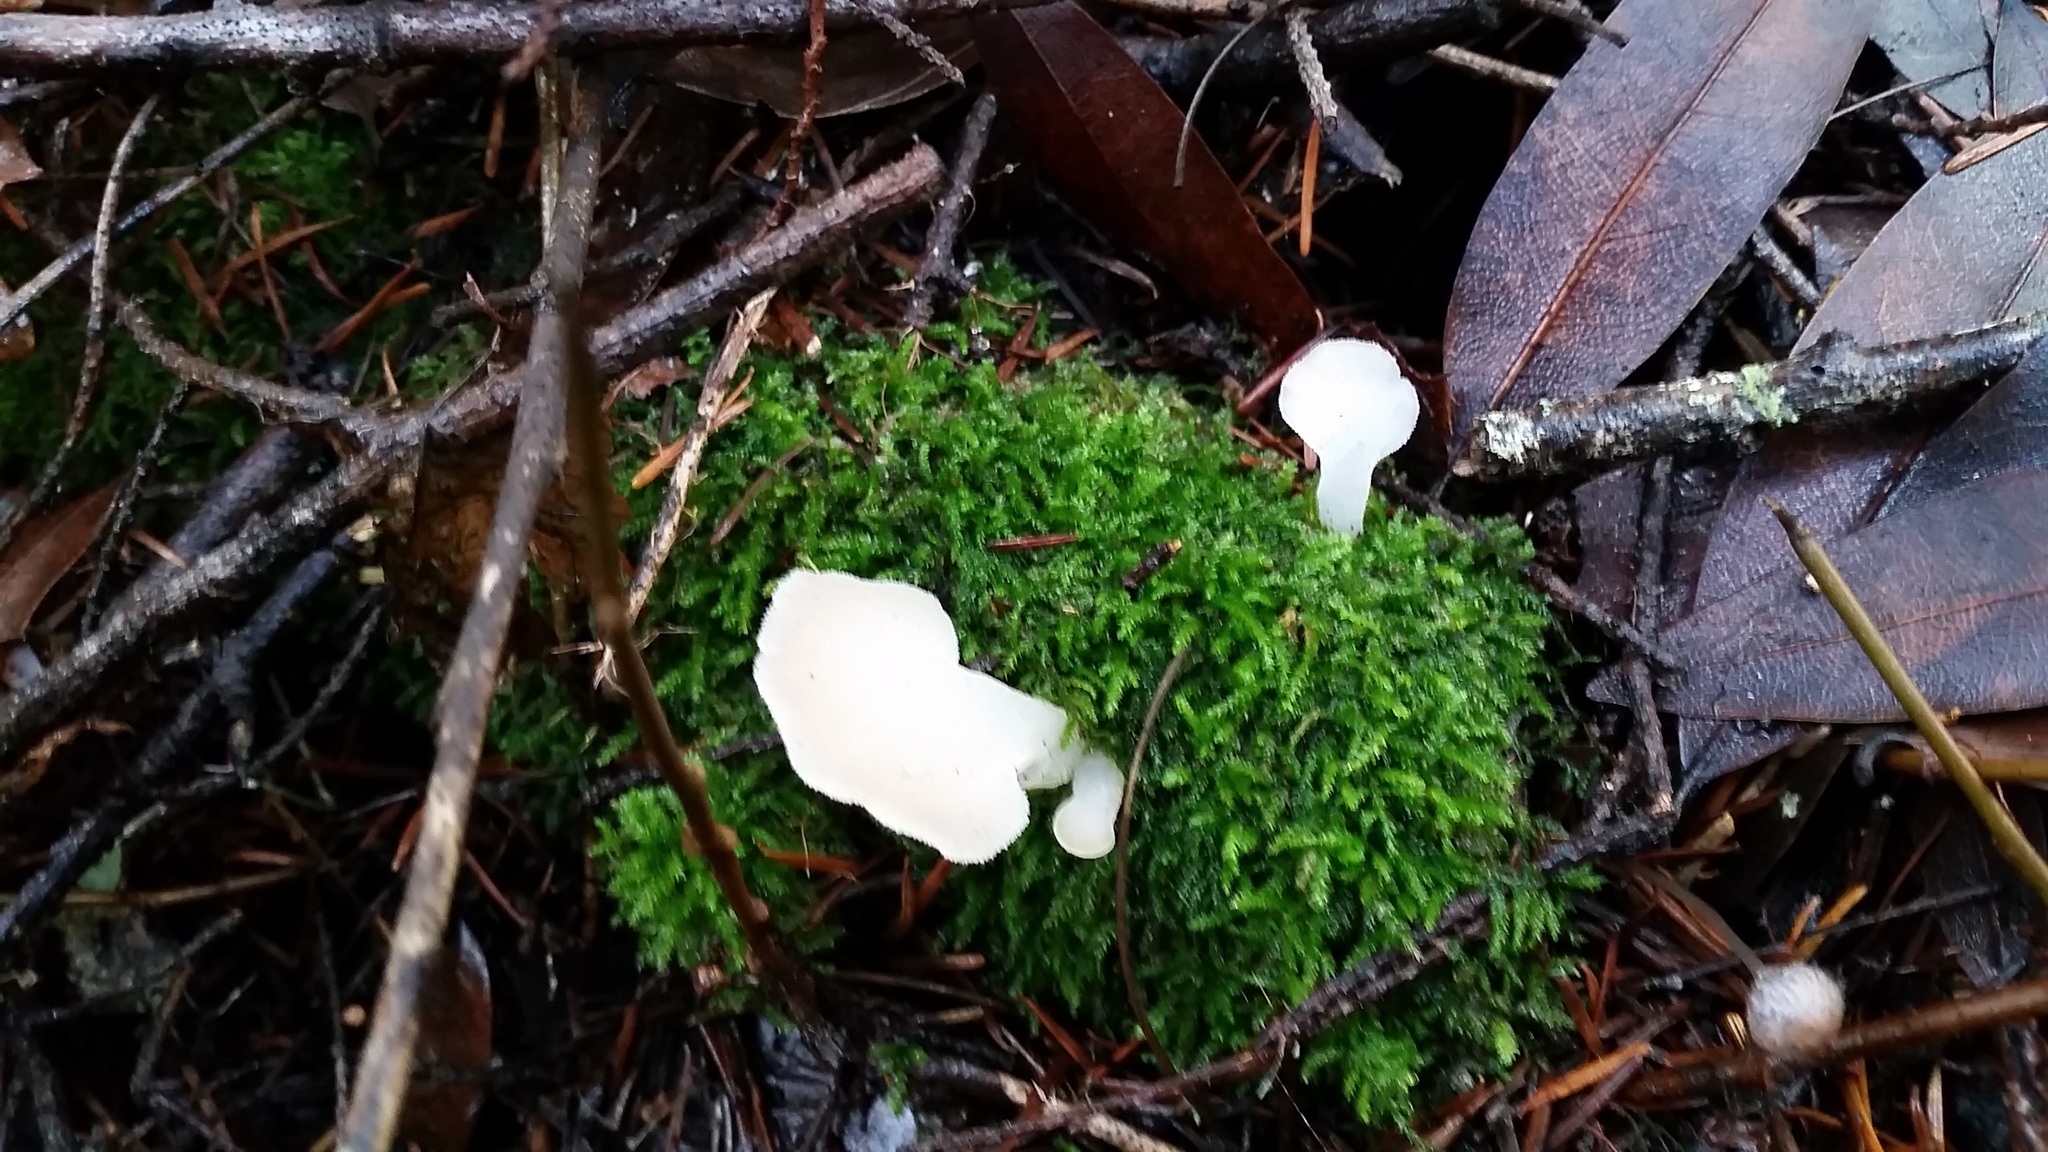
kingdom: Fungi
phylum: Basidiomycota
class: Agaricomycetes
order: Auriculariales
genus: Pseudohydnum
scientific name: Pseudohydnum gelatinosum
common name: Jelly tongue
